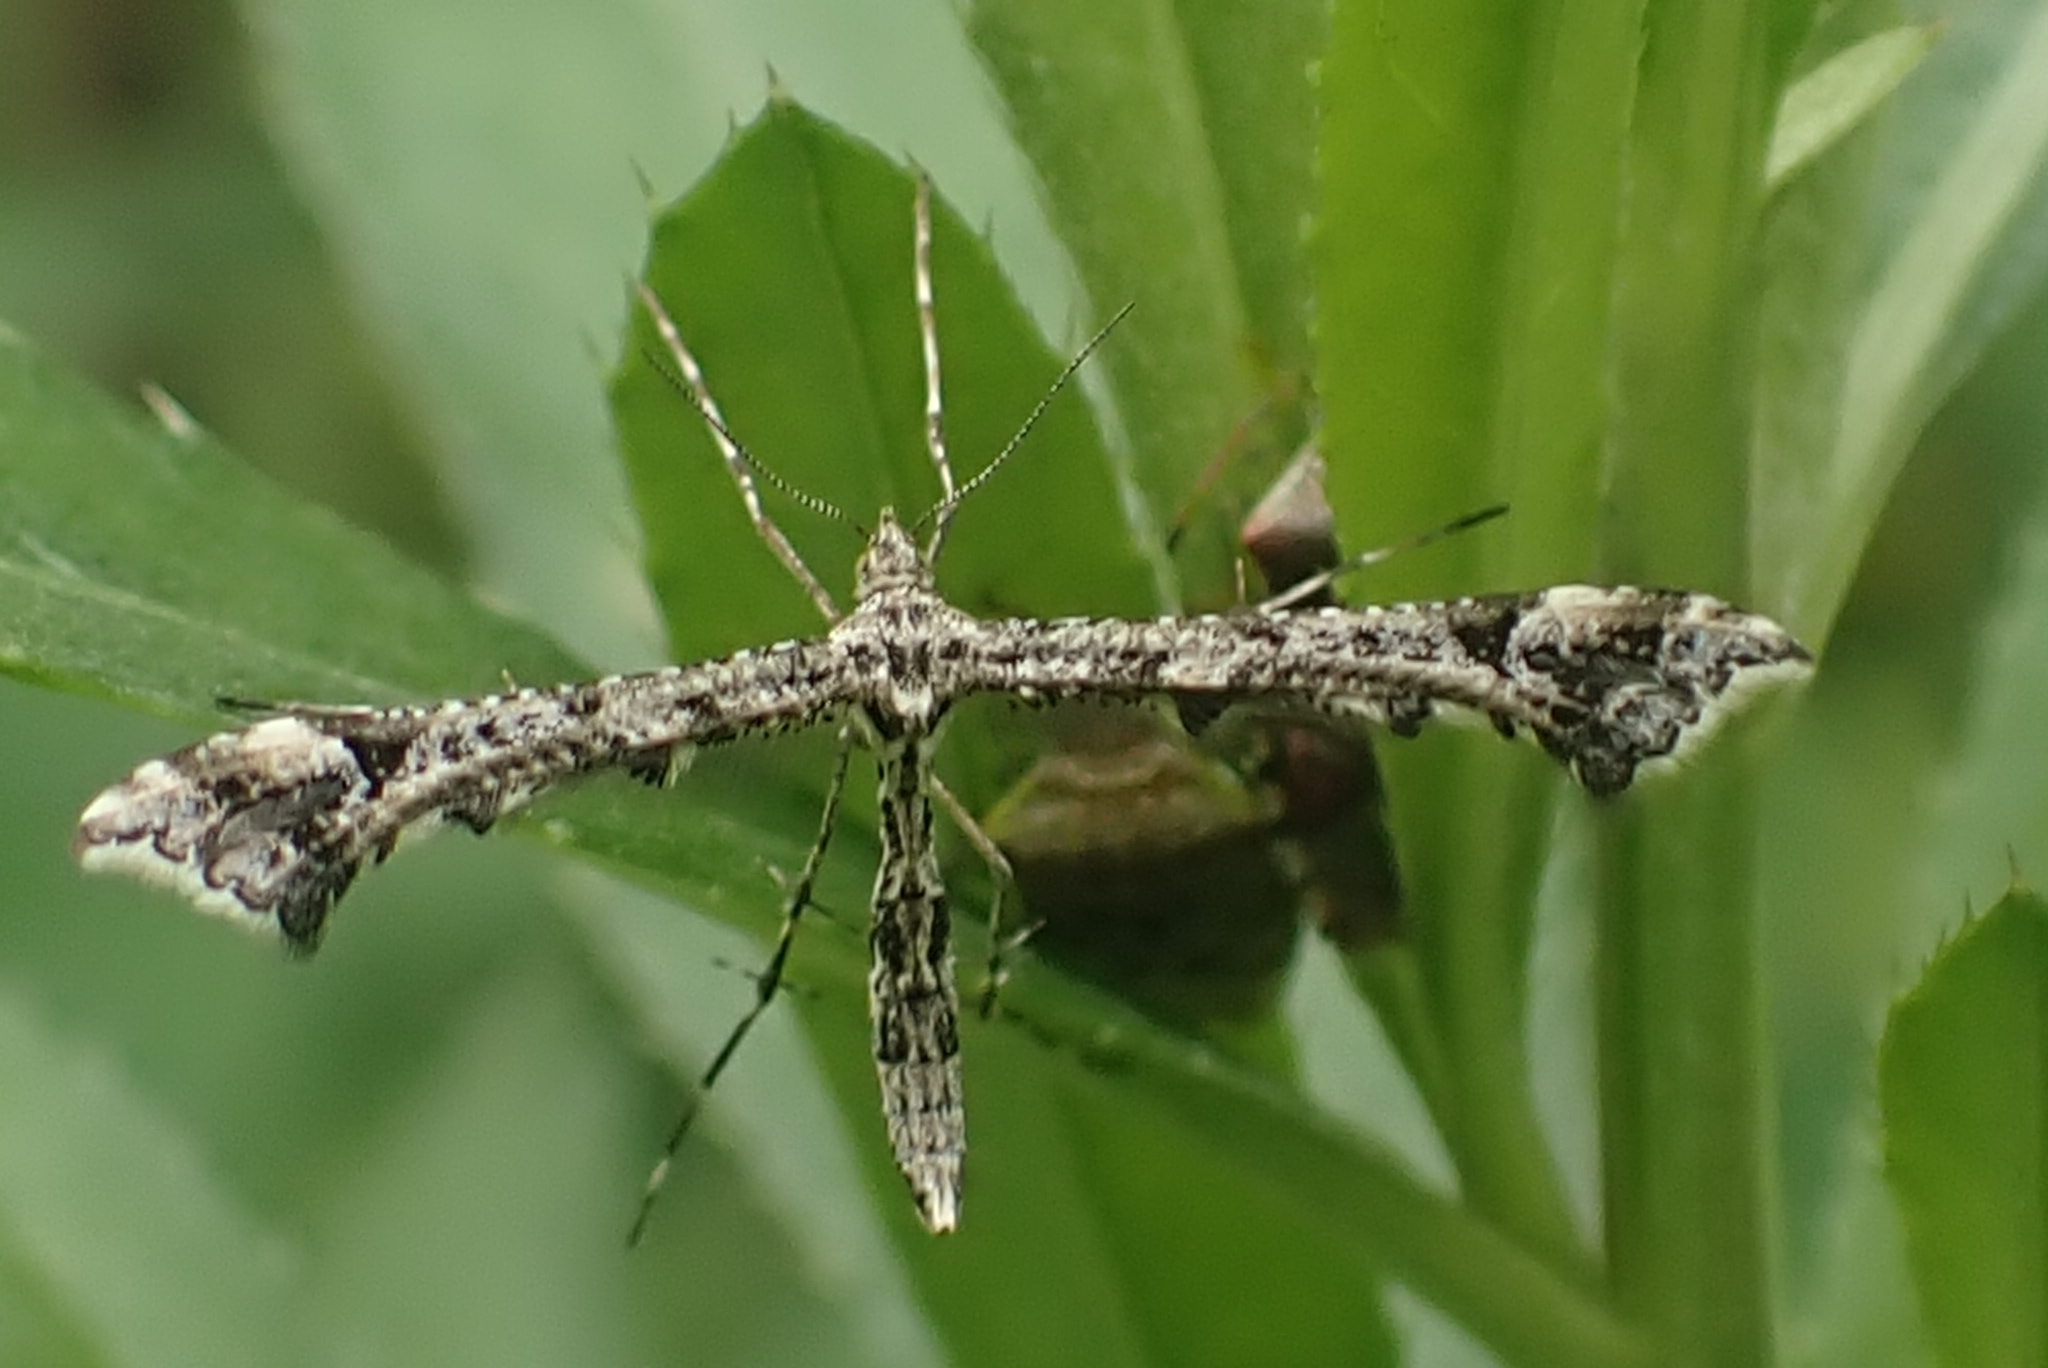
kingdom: Animalia
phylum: Arthropoda
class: Insecta
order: Lepidoptera
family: Pterophoridae
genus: Amblyptilia
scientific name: Amblyptilia punctidactyla
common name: Brindled plume
